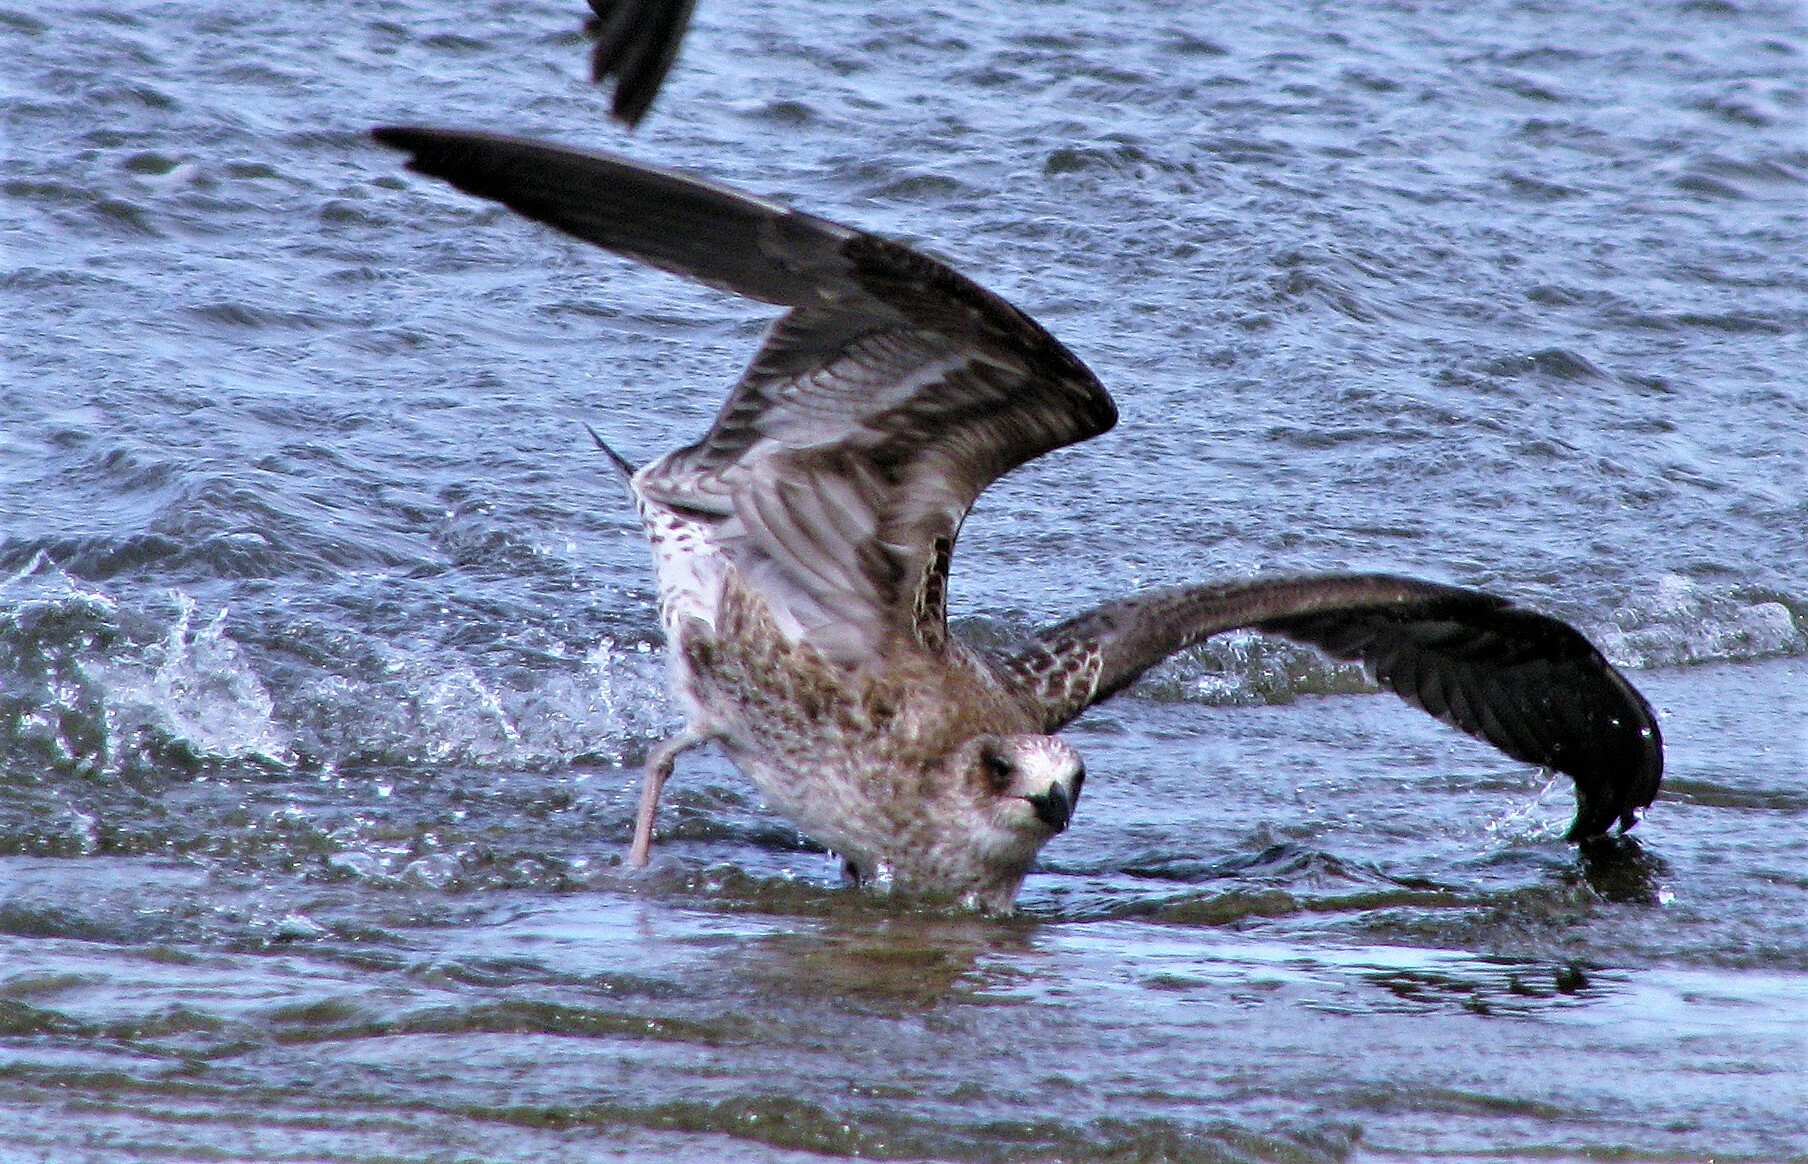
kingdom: Animalia
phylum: Chordata
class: Aves
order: Charadriiformes
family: Laridae
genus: Larus
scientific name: Larus dominicanus
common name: Kelp gull
